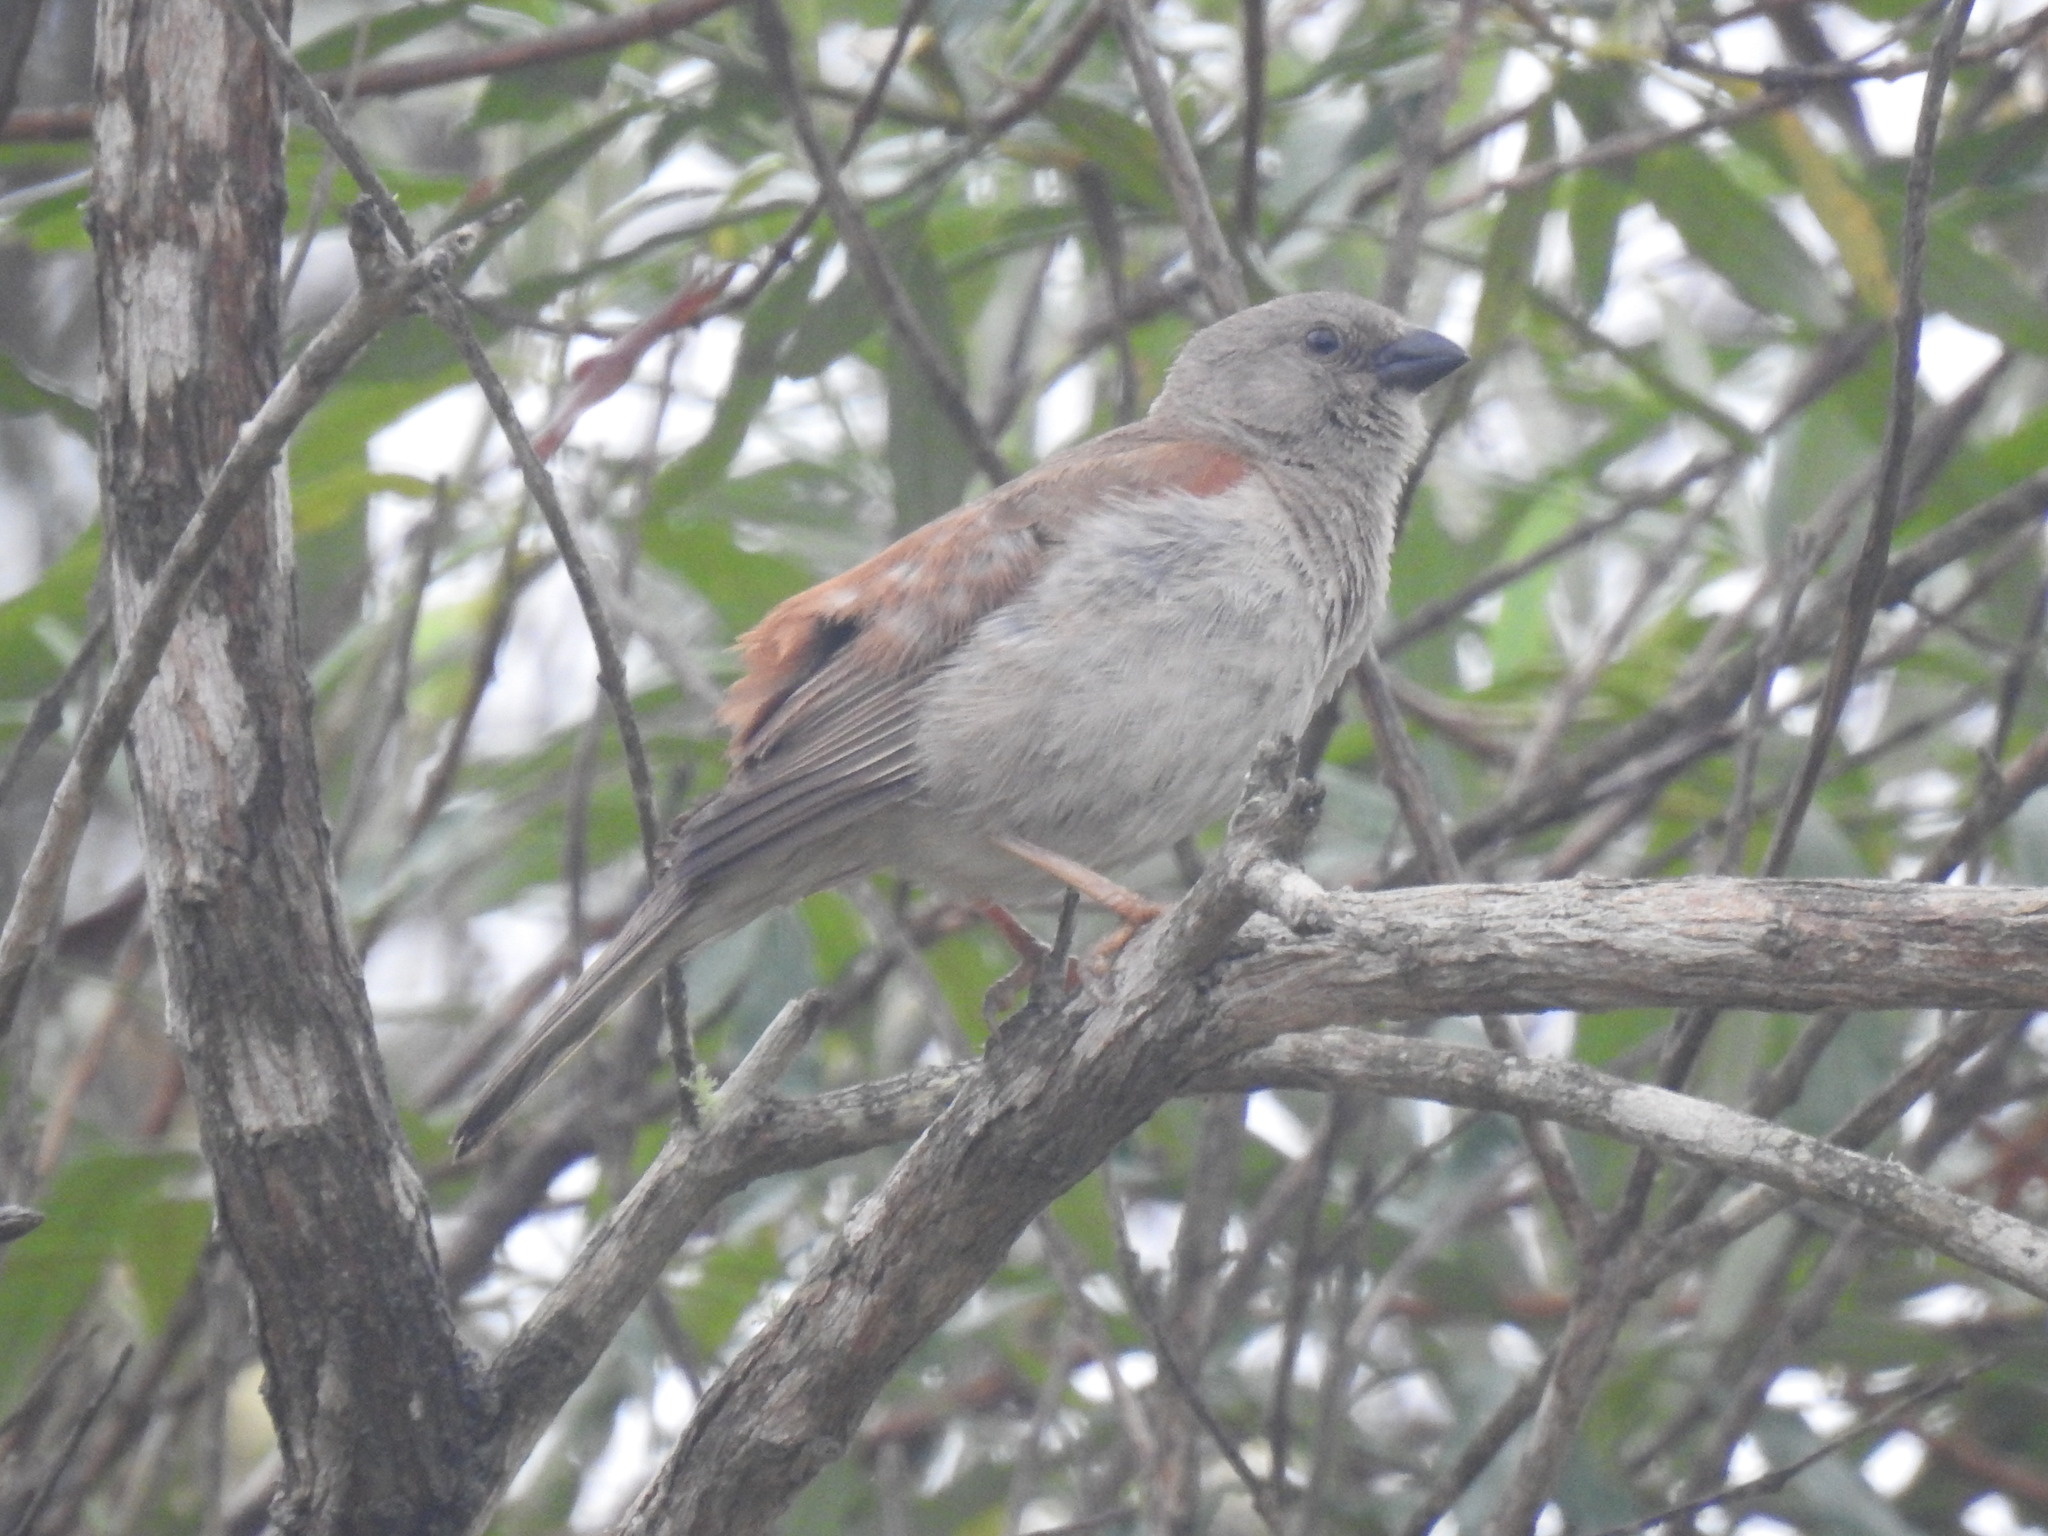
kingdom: Animalia
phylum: Chordata
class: Aves
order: Passeriformes
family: Passeridae
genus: Passer
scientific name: Passer diffusus
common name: Southern grey-headed sparrow
